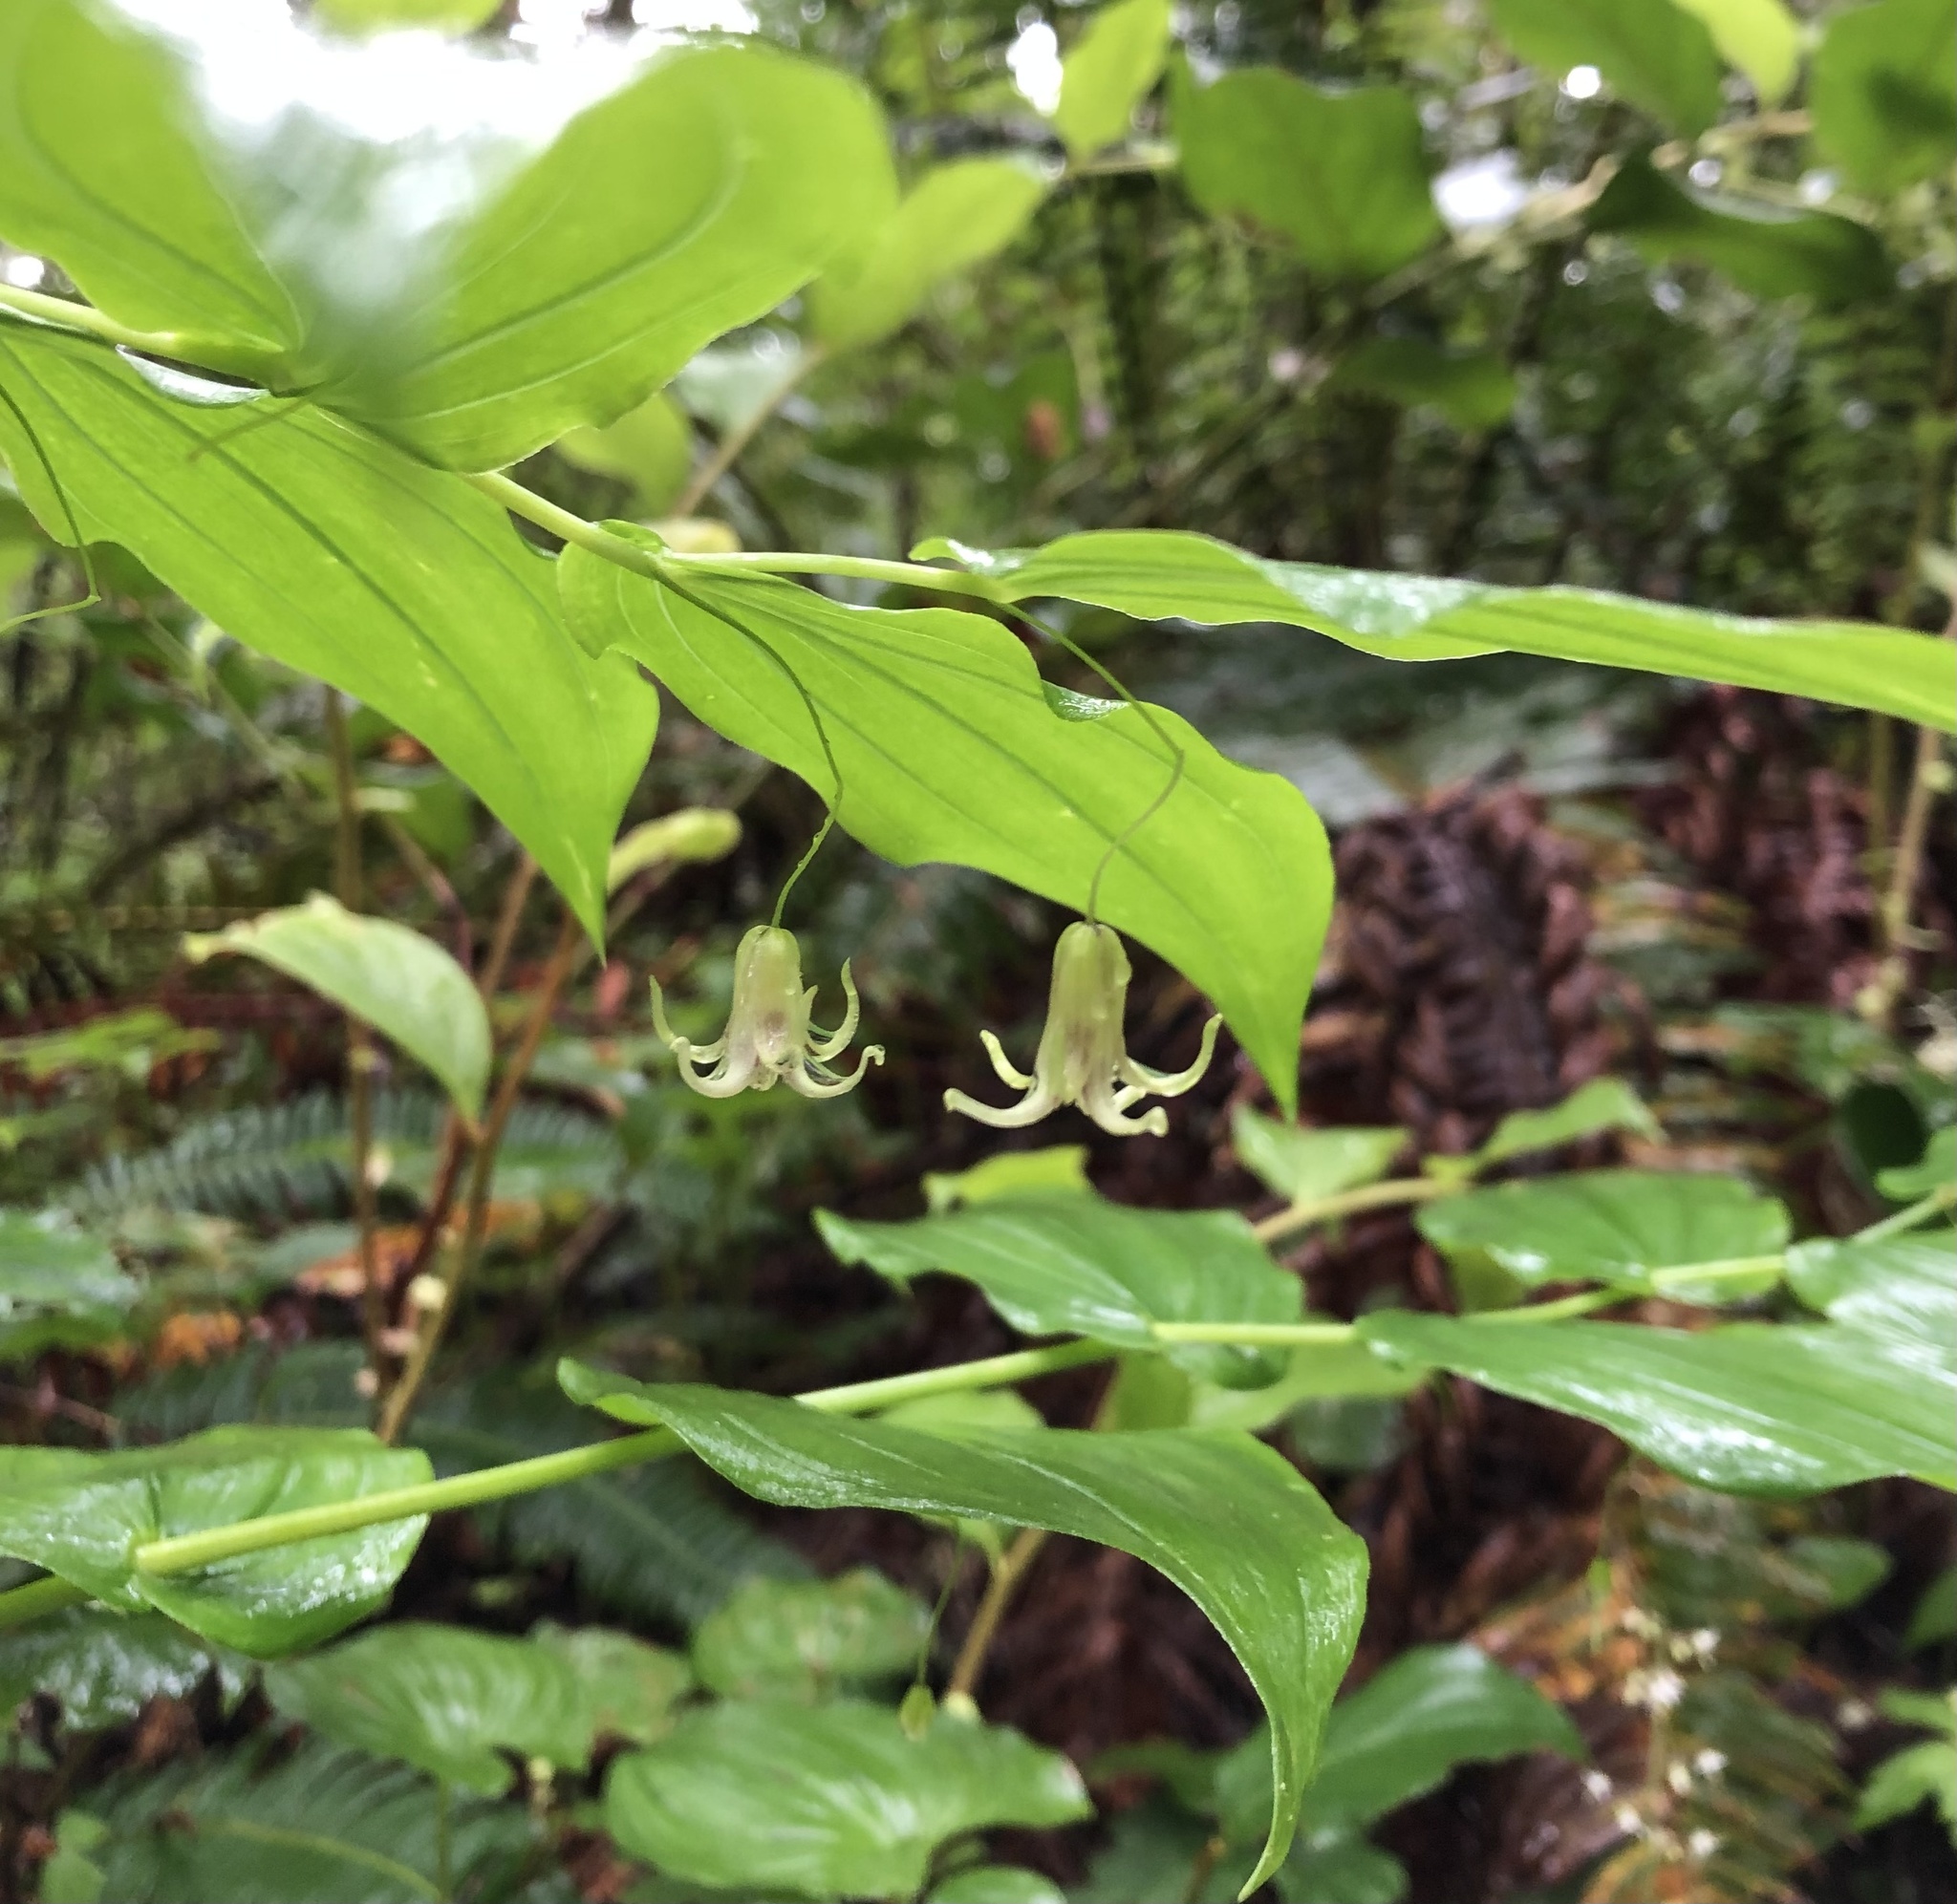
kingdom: Plantae
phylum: Tracheophyta
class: Liliopsida
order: Liliales
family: Liliaceae
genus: Streptopus
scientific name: Streptopus amplexifolius
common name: Clasp twisted stalk
